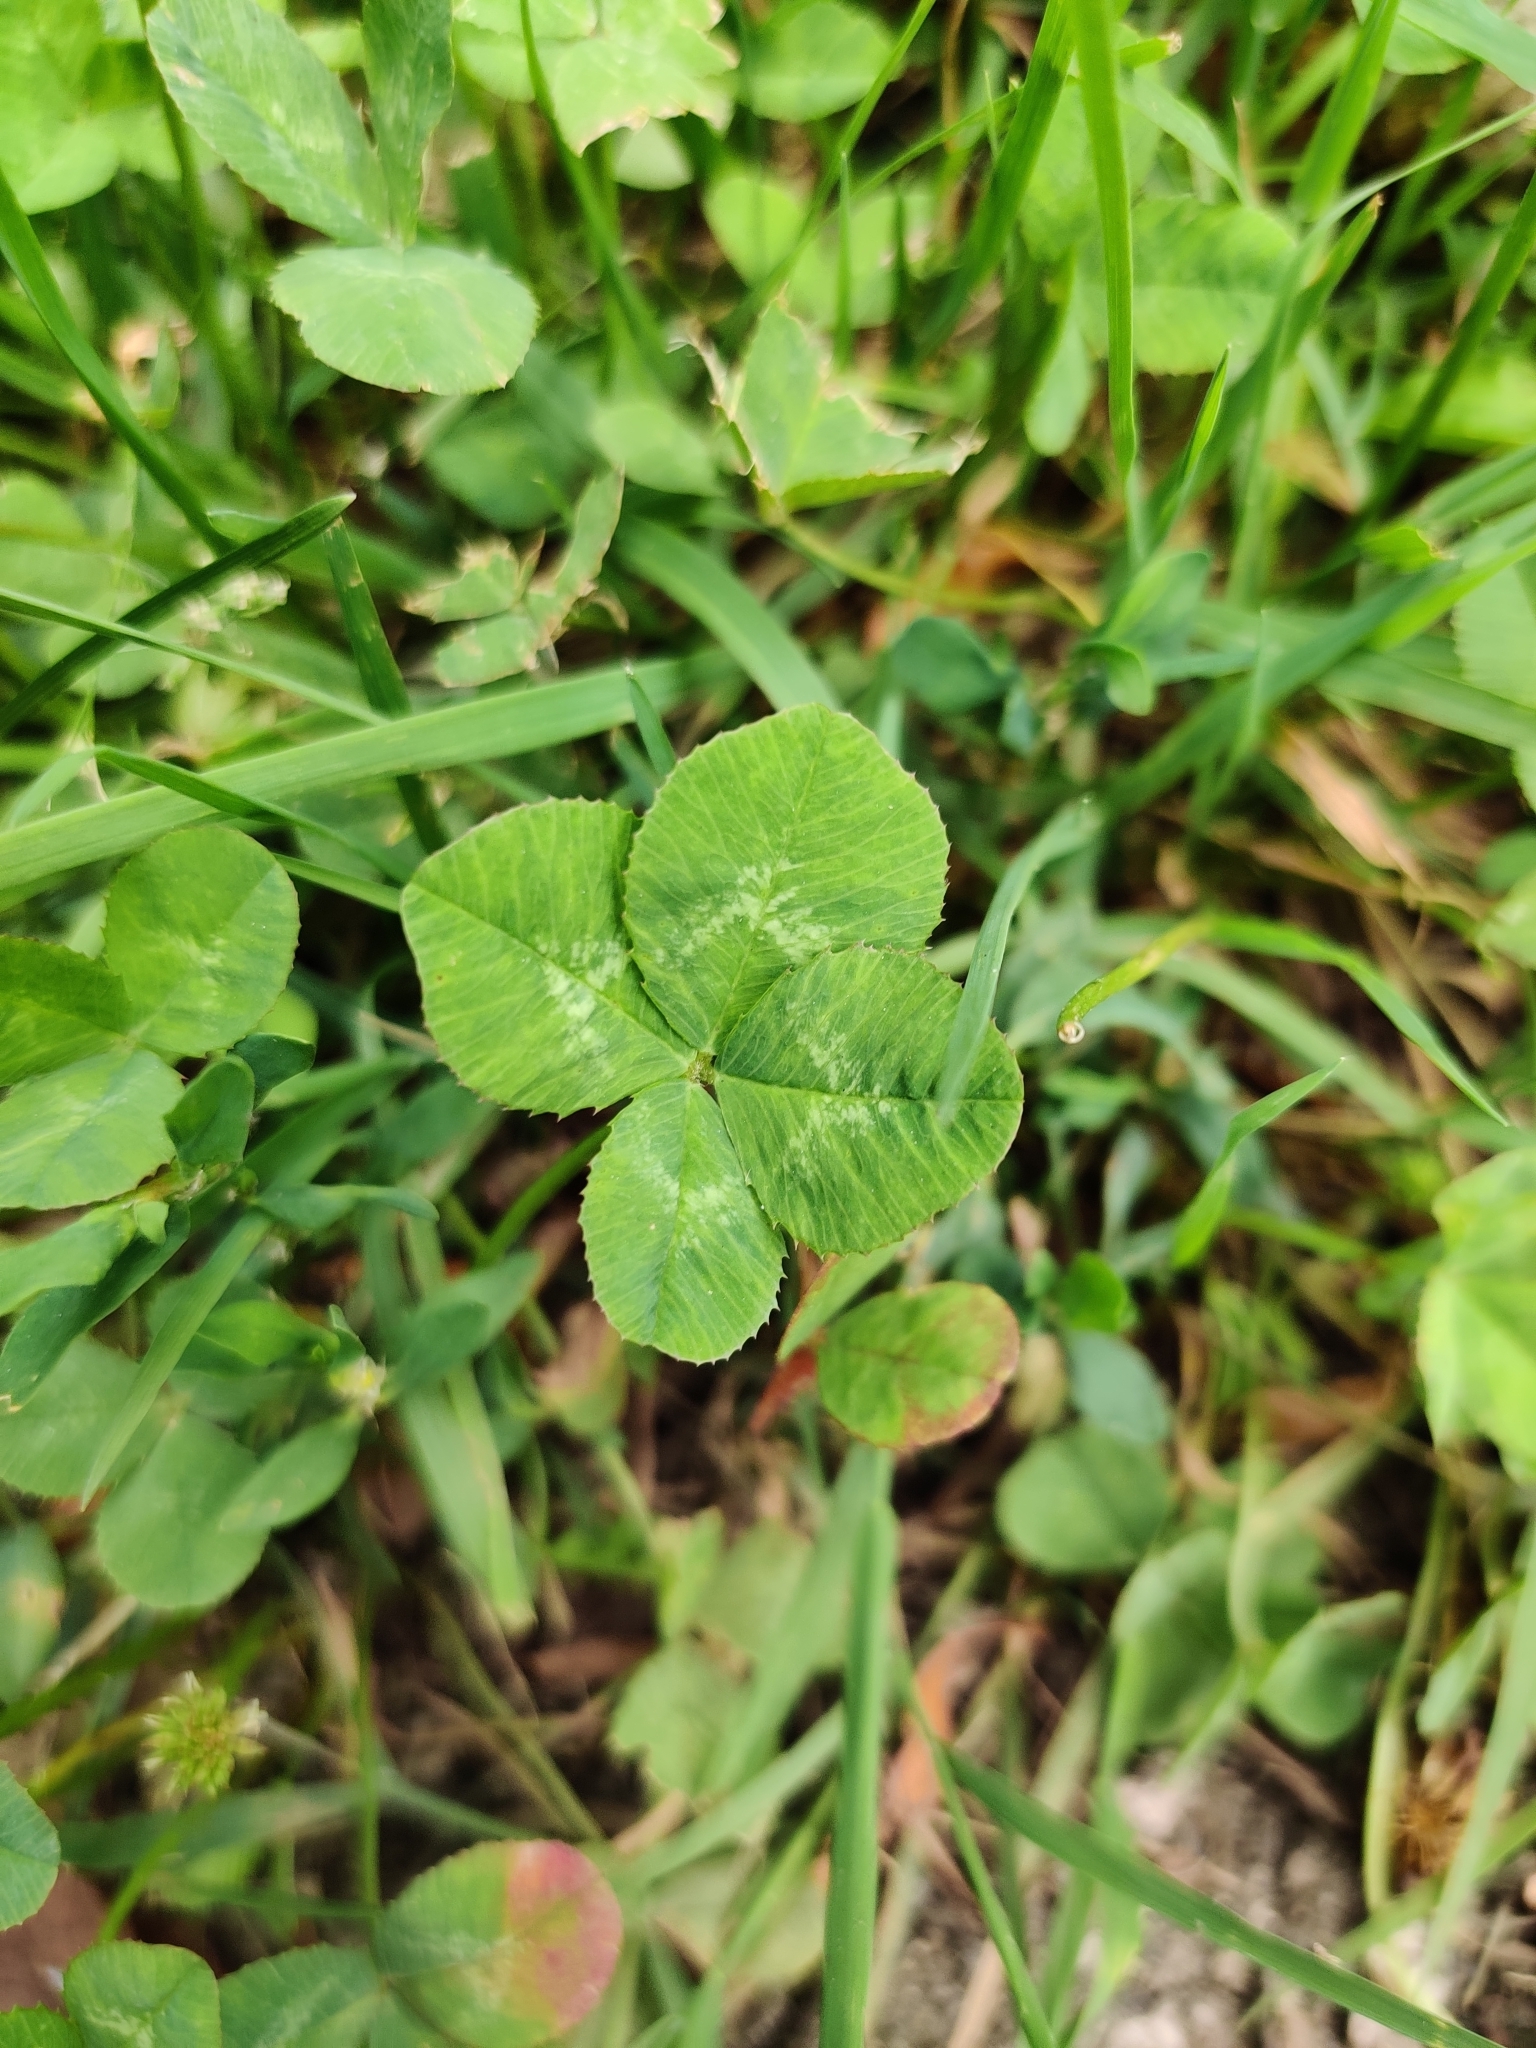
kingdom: Plantae
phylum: Tracheophyta
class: Magnoliopsida
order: Fabales
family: Fabaceae
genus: Trifolium
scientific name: Trifolium repens
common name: White clover
